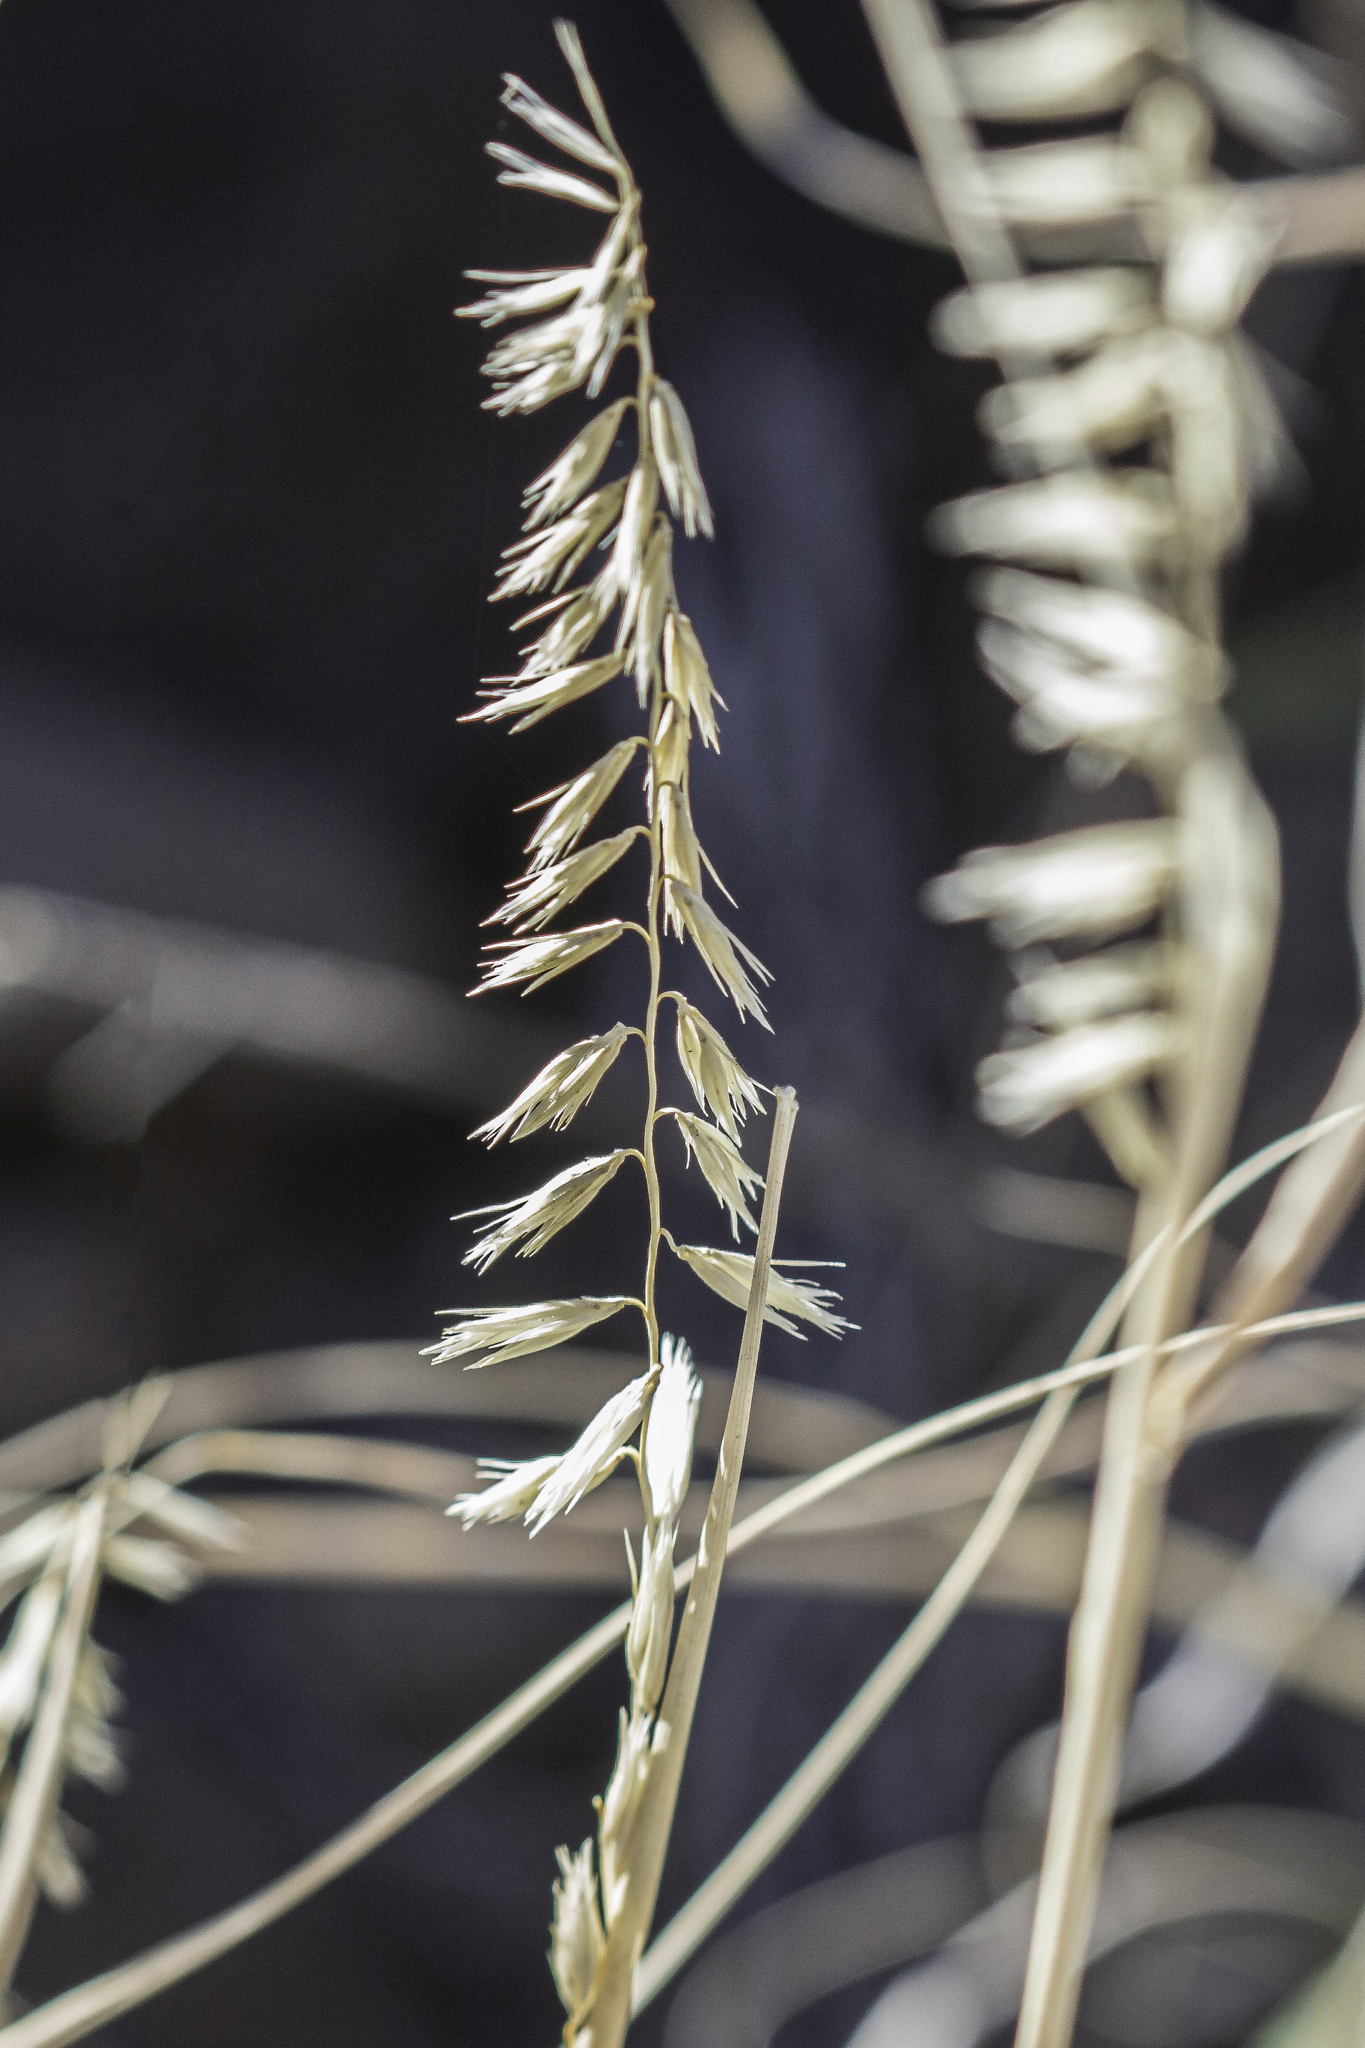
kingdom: Plantae
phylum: Tracheophyta
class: Liliopsida
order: Poales
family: Poaceae
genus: Bouteloua
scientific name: Bouteloua curtipendula
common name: Side-oats grama
